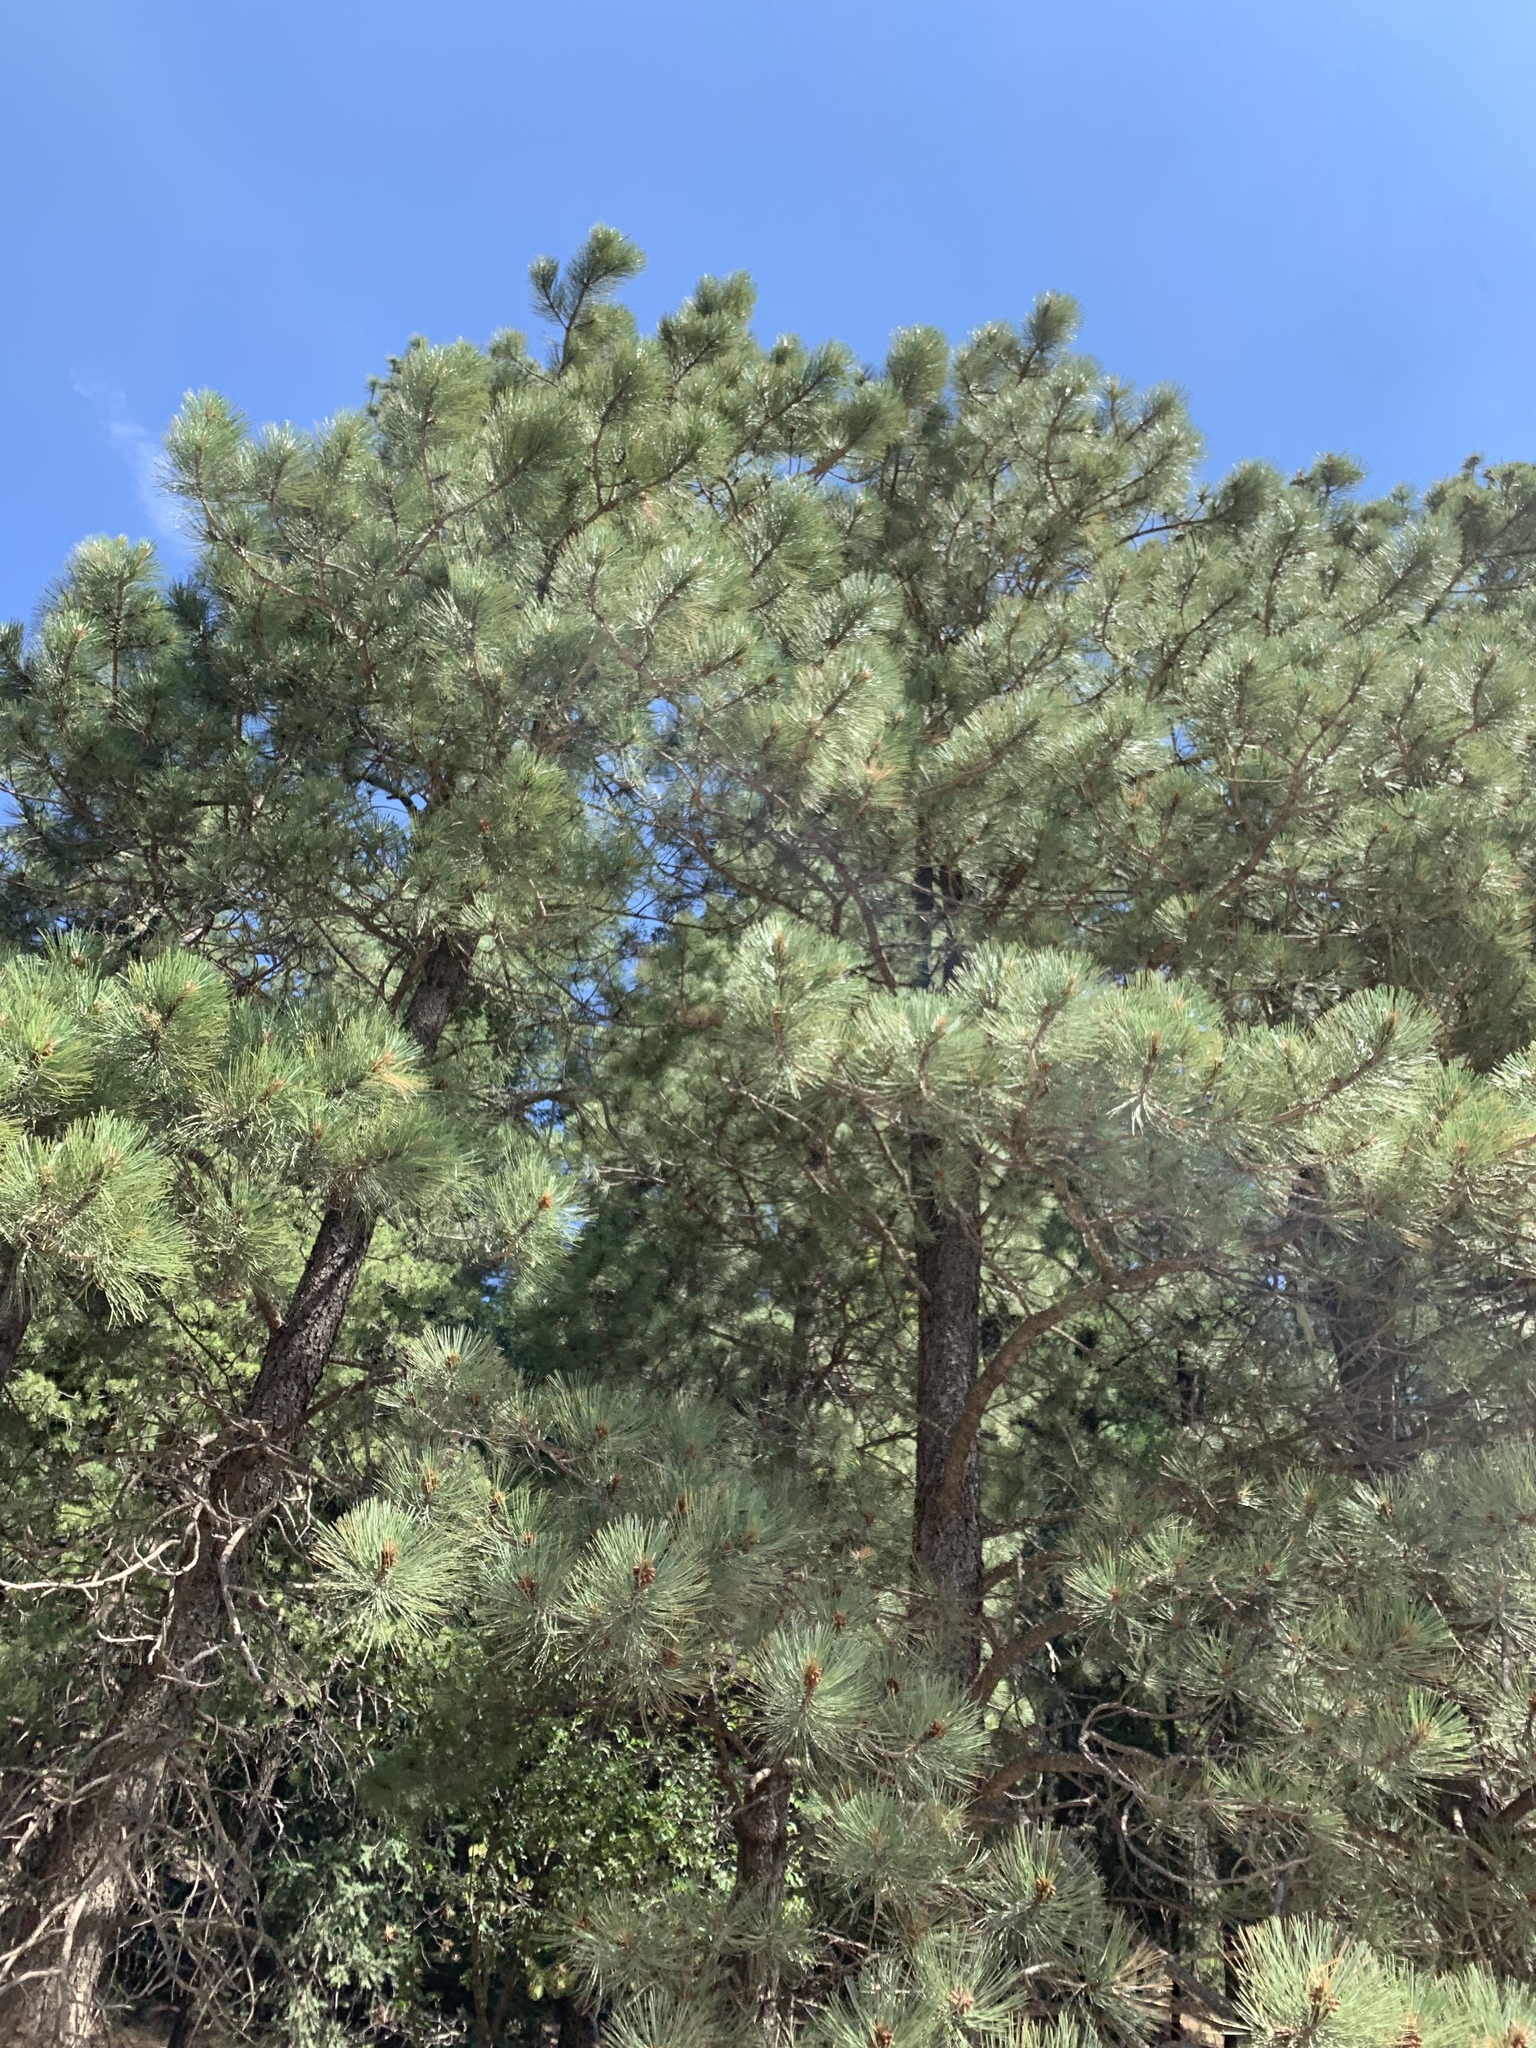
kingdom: Plantae
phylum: Tracheophyta
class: Pinopsida
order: Pinales
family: Pinaceae
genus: Pinus
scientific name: Pinus ponderosa
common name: Western yellow-pine
